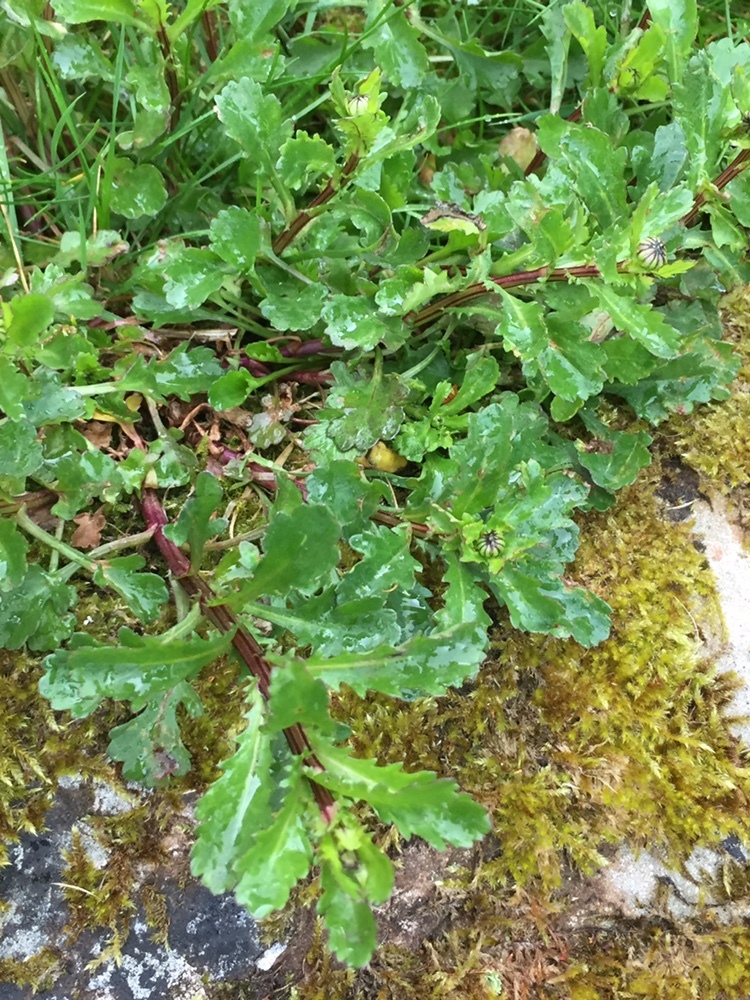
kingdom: Plantae
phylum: Tracheophyta
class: Magnoliopsida
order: Asterales
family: Asteraceae
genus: Leucanthemum
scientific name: Leucanthemum vulgare
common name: Oxeye daisy
